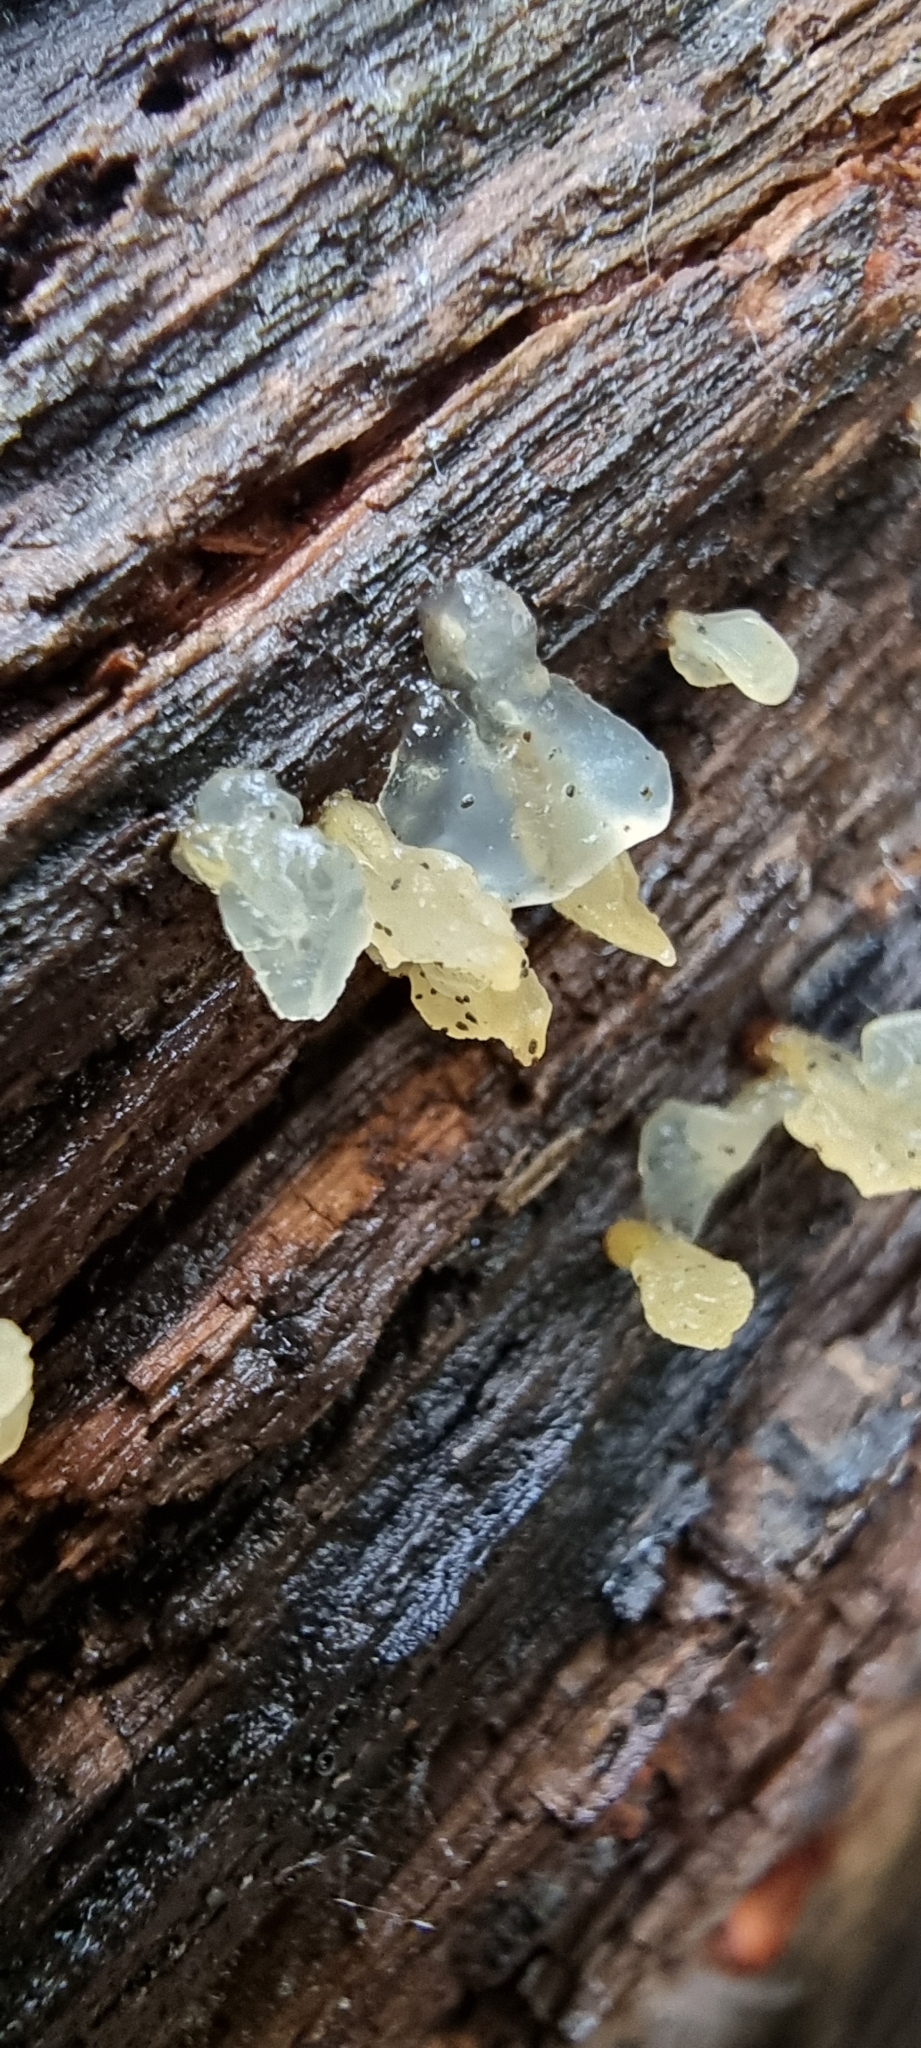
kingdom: Fungi
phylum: Basidiomycota
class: Dacrymycetes
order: Dacrymycetales
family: Dacrymycetaceae
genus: Calocera
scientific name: Calocera pallidospathulata
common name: Pale stagshorn
